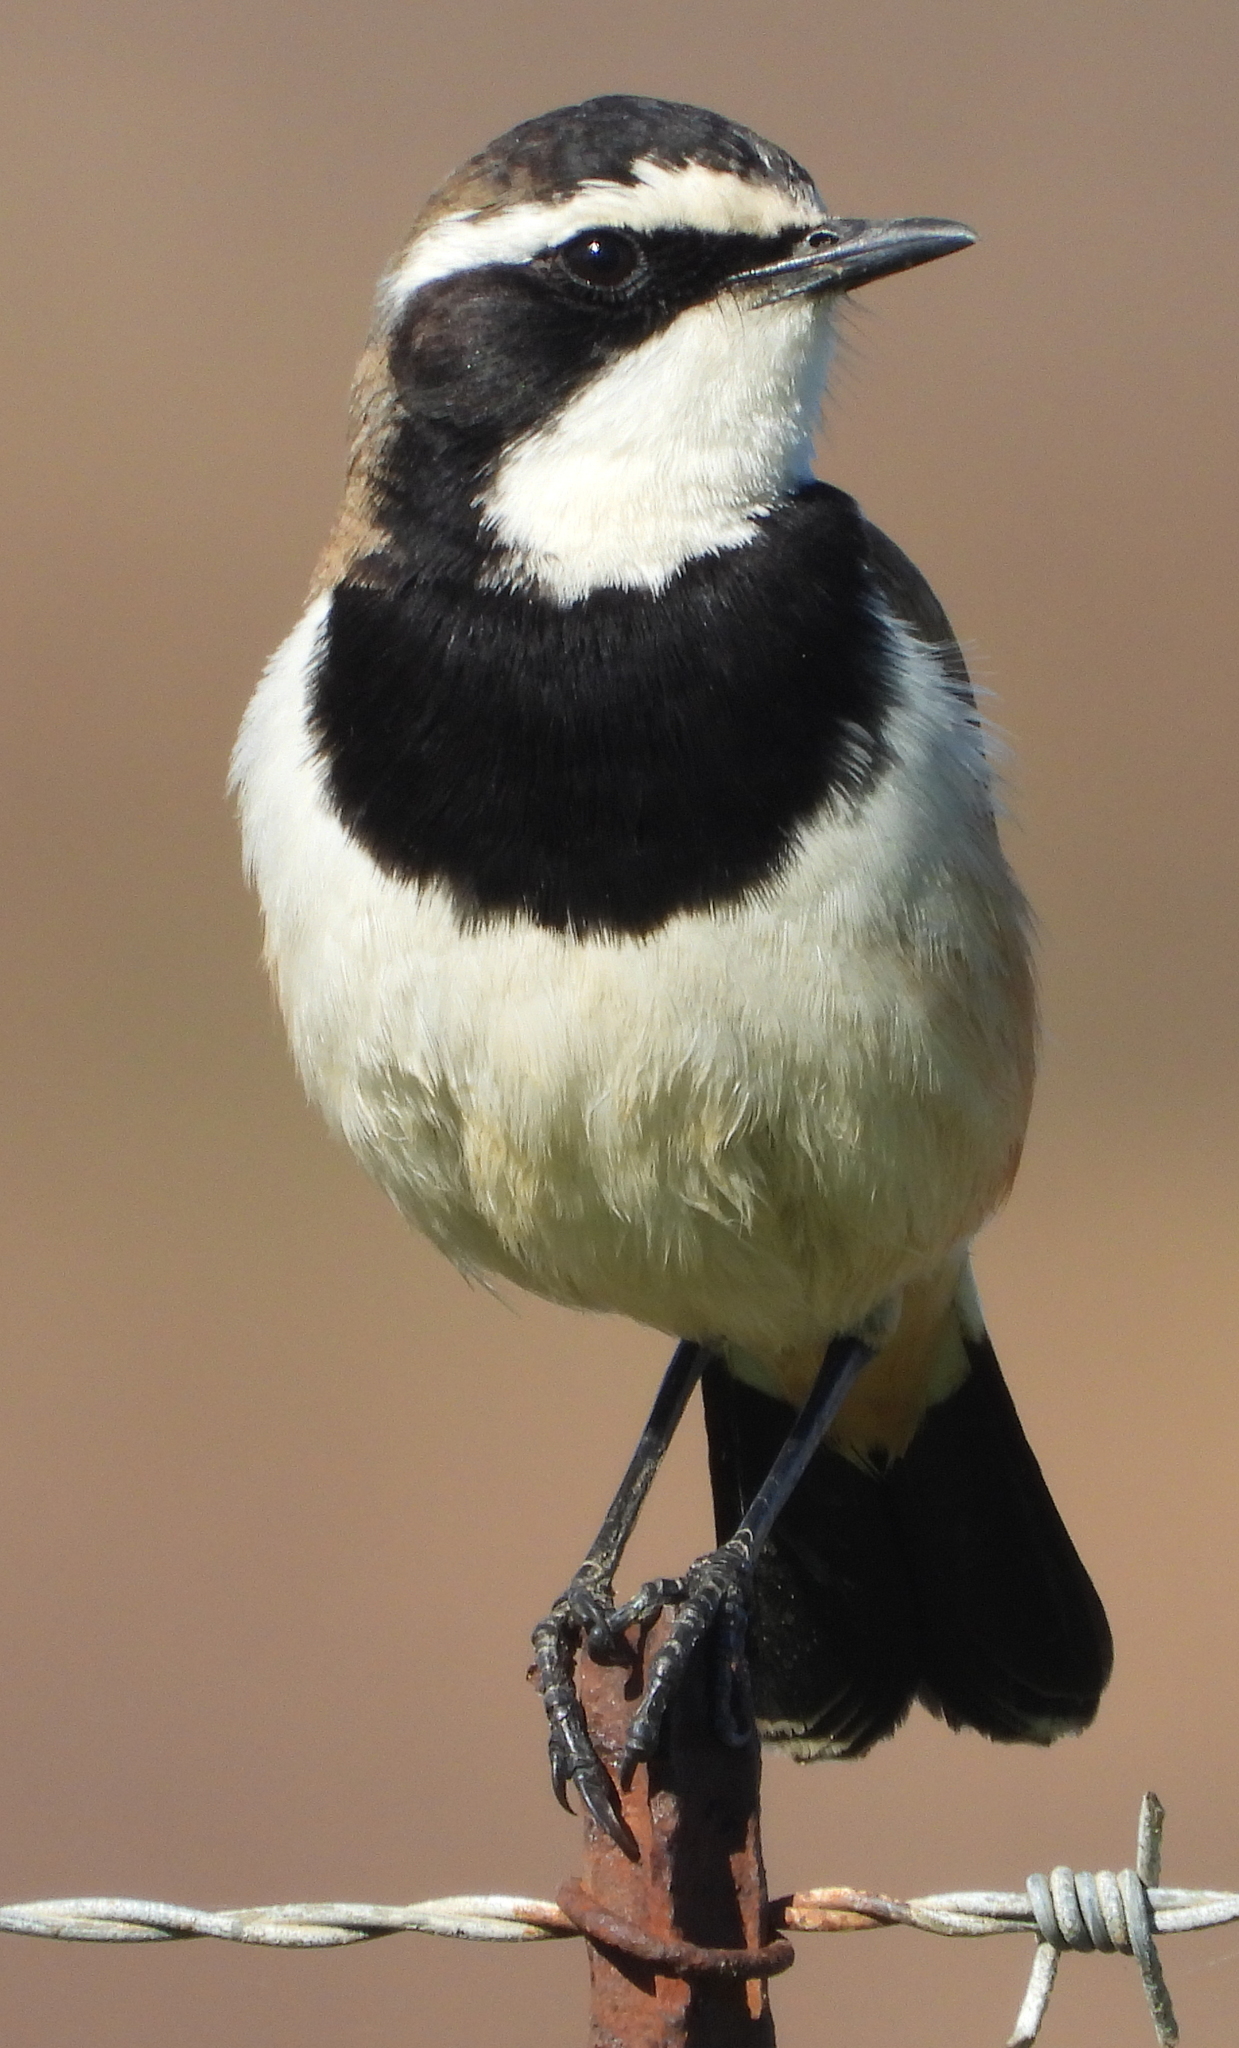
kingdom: Animalia
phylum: Chordata
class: Aves
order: Passeriformes
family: Muscicapidae
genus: Oenanthe
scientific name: Oenanthe pileata
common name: Capped wheatear
